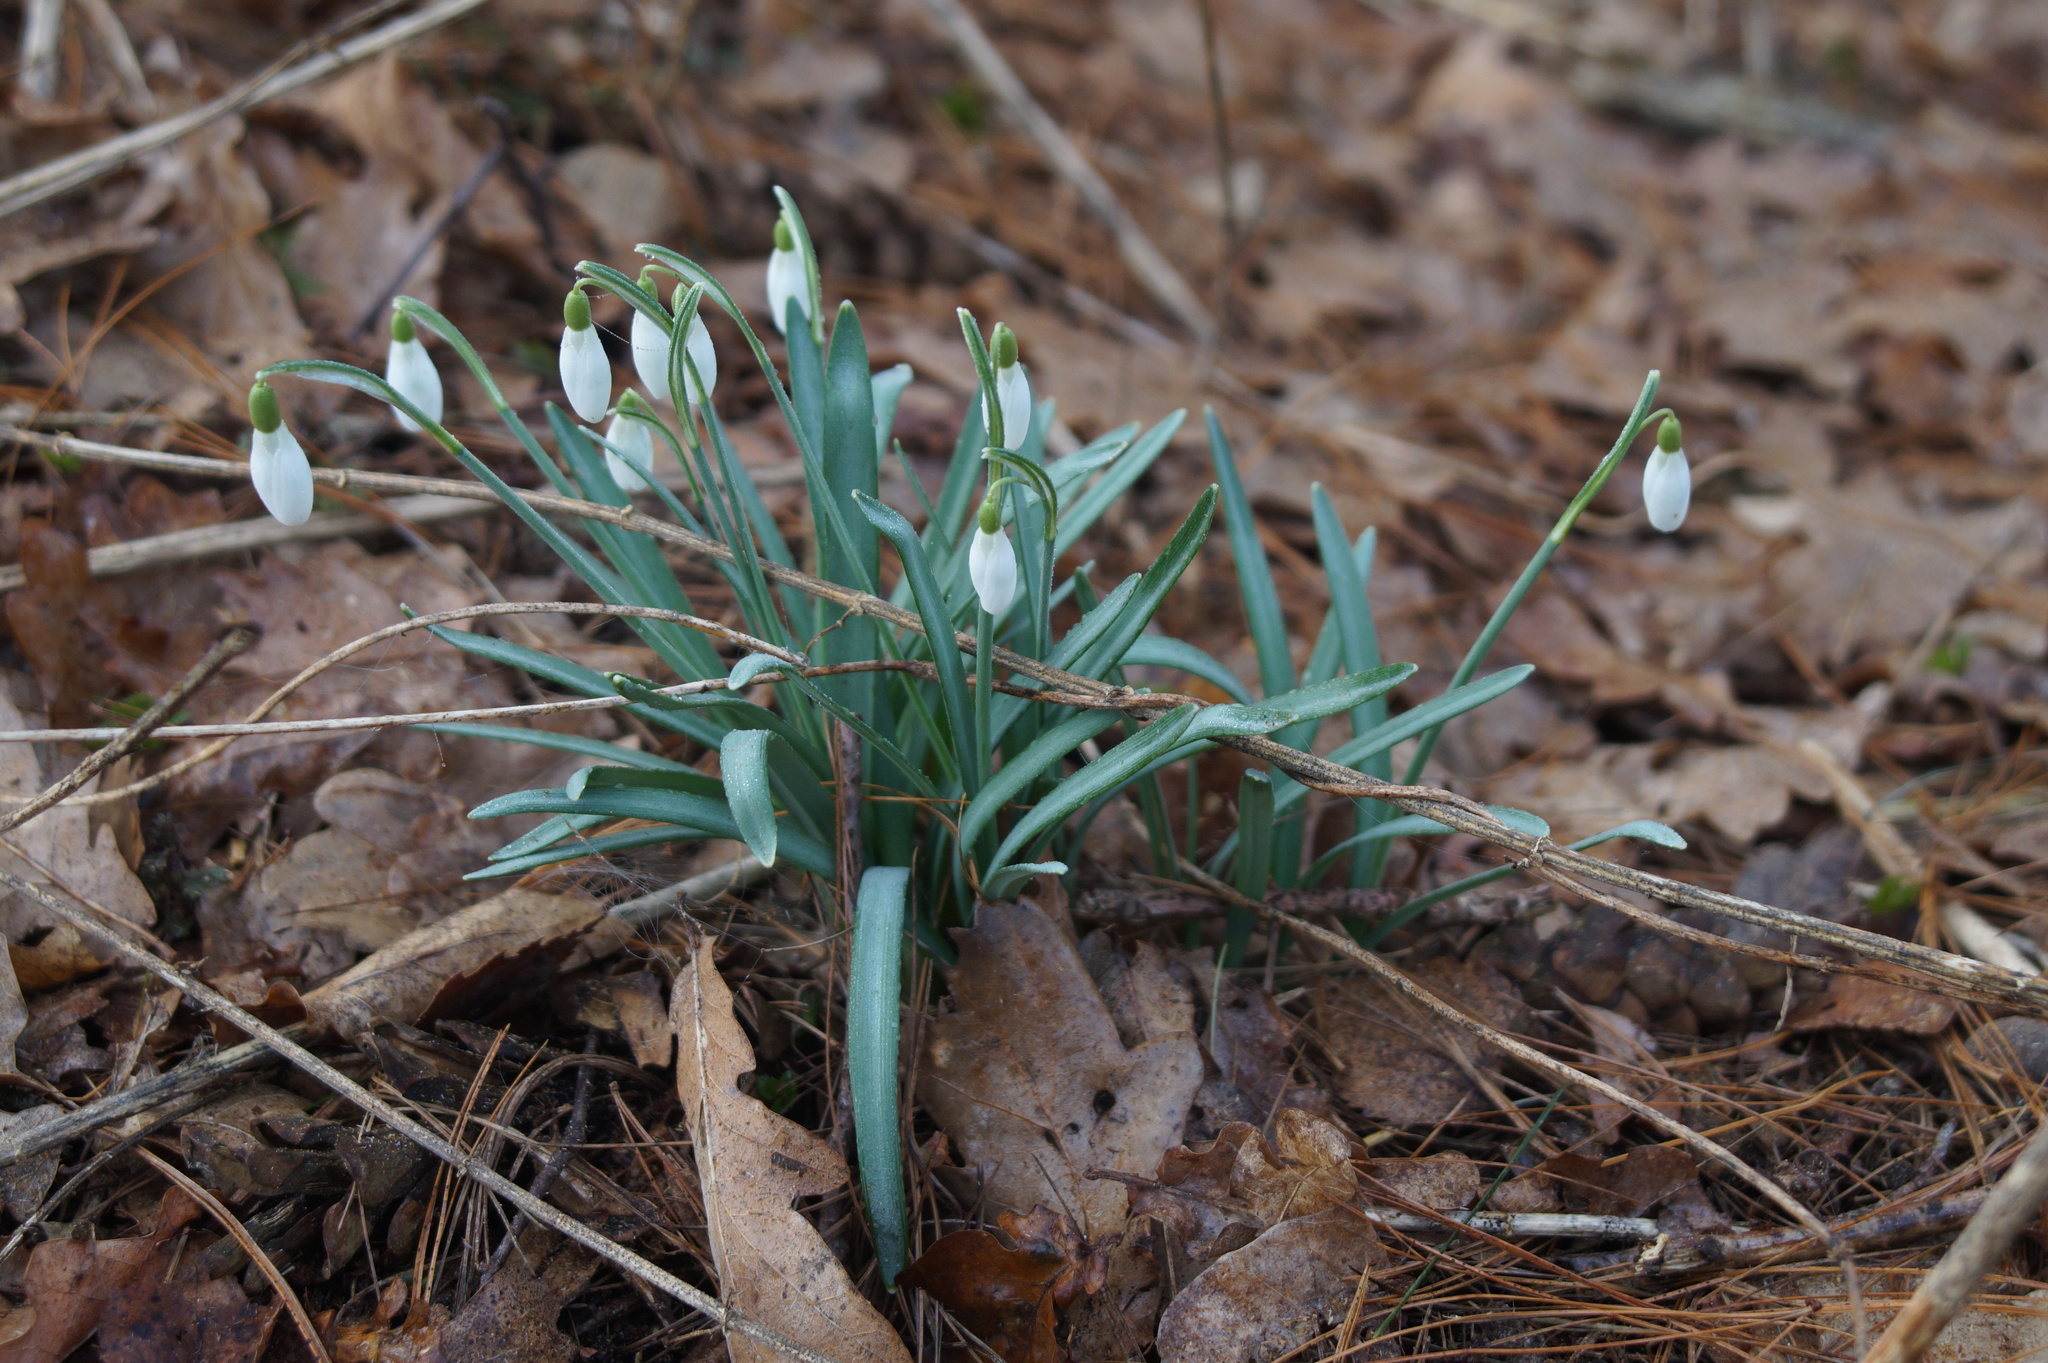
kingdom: Plantae
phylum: Tracheophyta
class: Liliopsida
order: Asparagales
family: Amaryllidaceae
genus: Galanthus
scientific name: Galanthus nivalis
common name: Snowdrop
